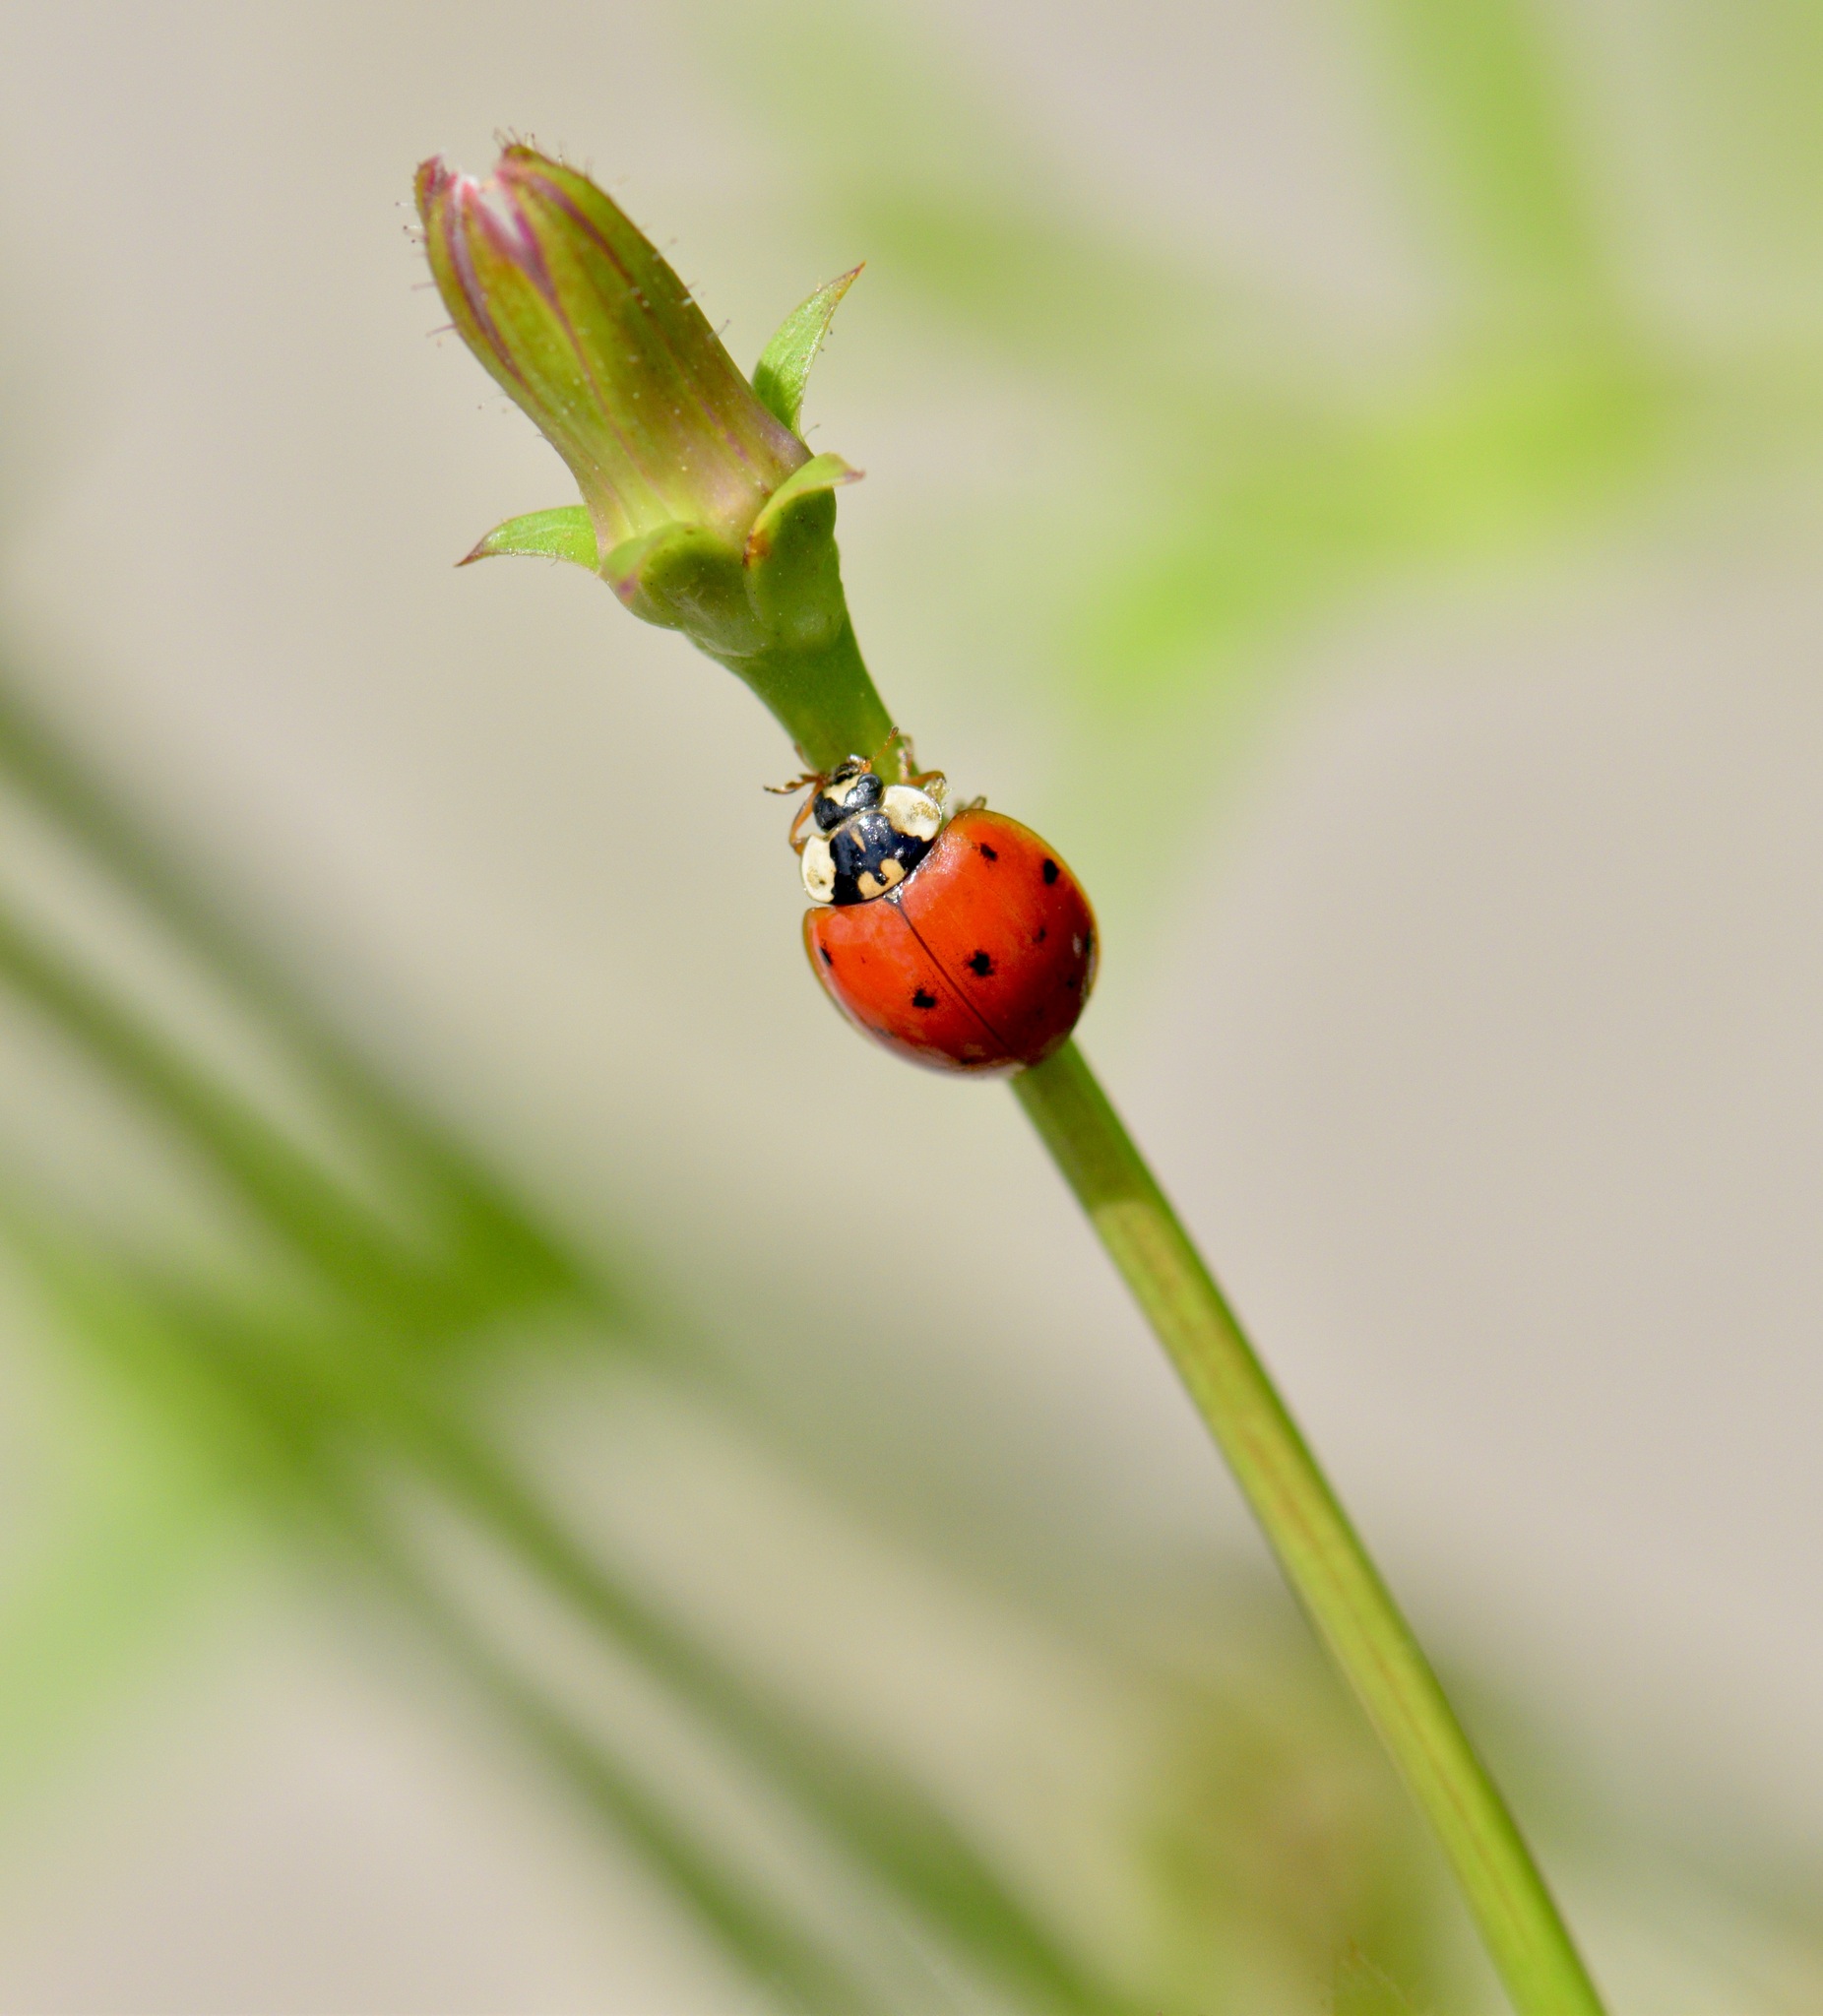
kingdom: Animalia
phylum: Arthropoda
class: Insecta
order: Coleoptera
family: Coccinellidae
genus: Harmonia
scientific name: Harmonia axyridis
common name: Harlequin ladybird
